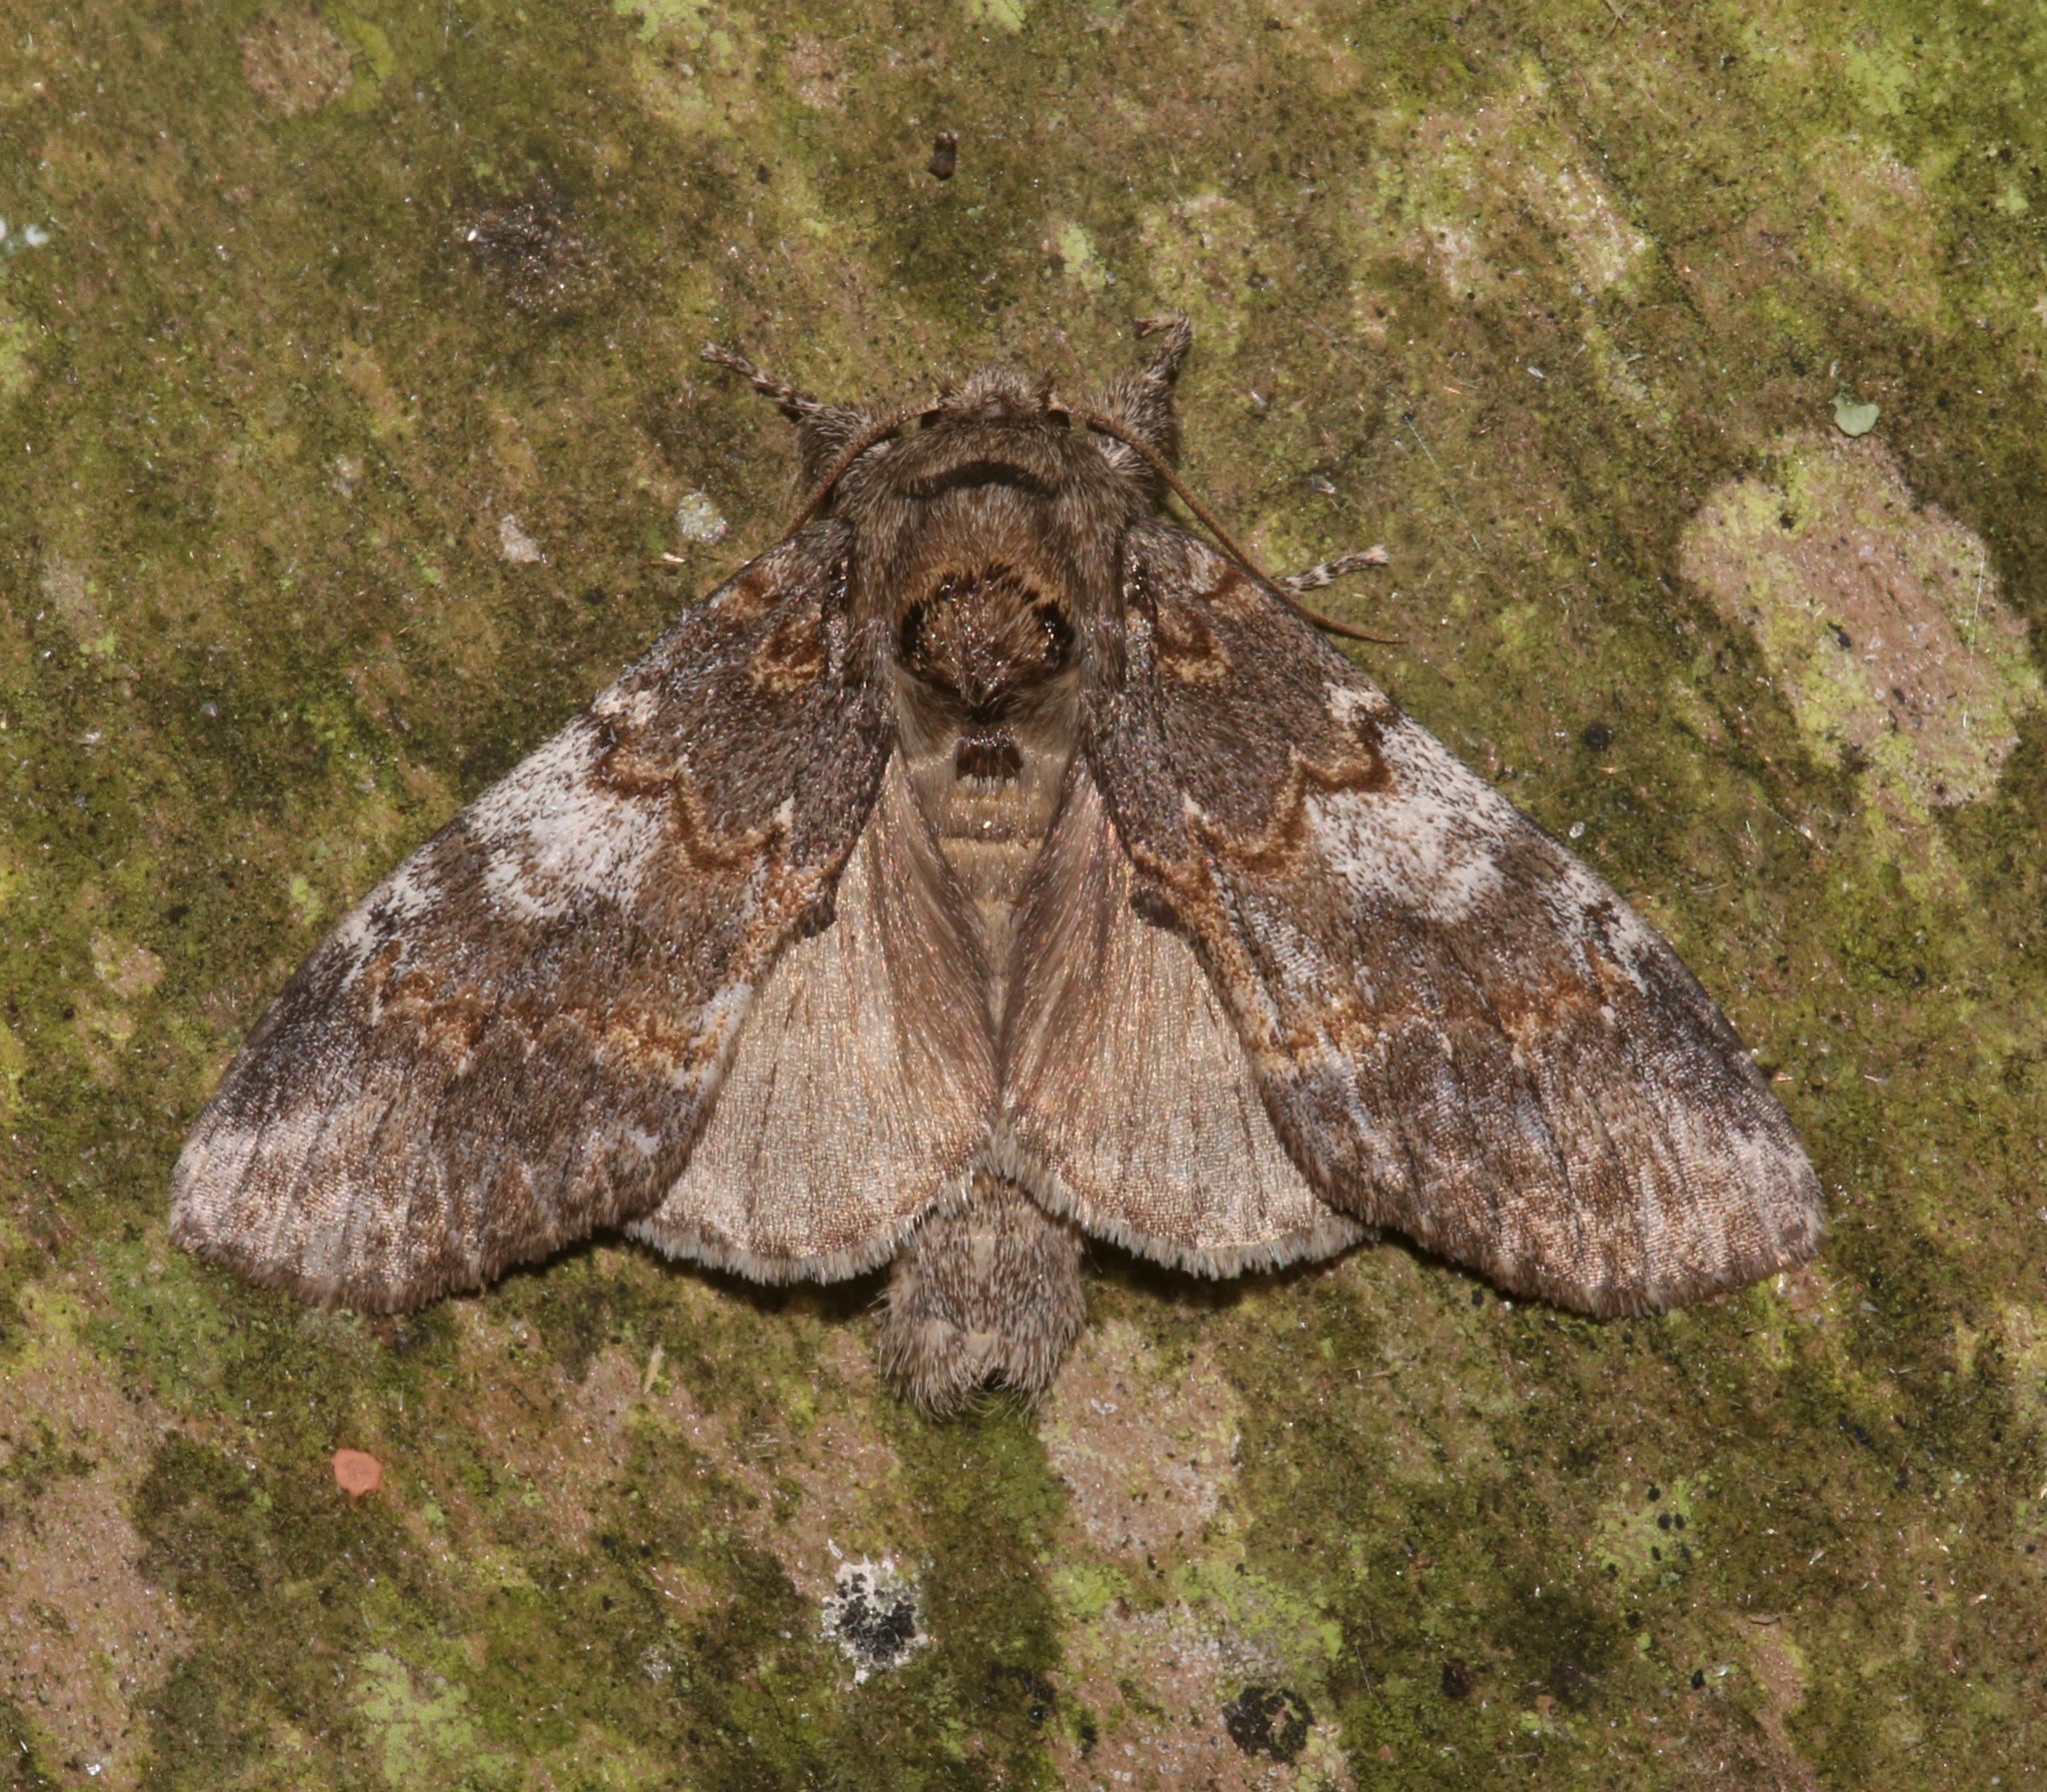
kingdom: Animalia
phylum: Arthropoda
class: Insecta
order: Lepidoptera
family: Notodontidae
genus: Peridea
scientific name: Peridea angulosa
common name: Angulose prominent
